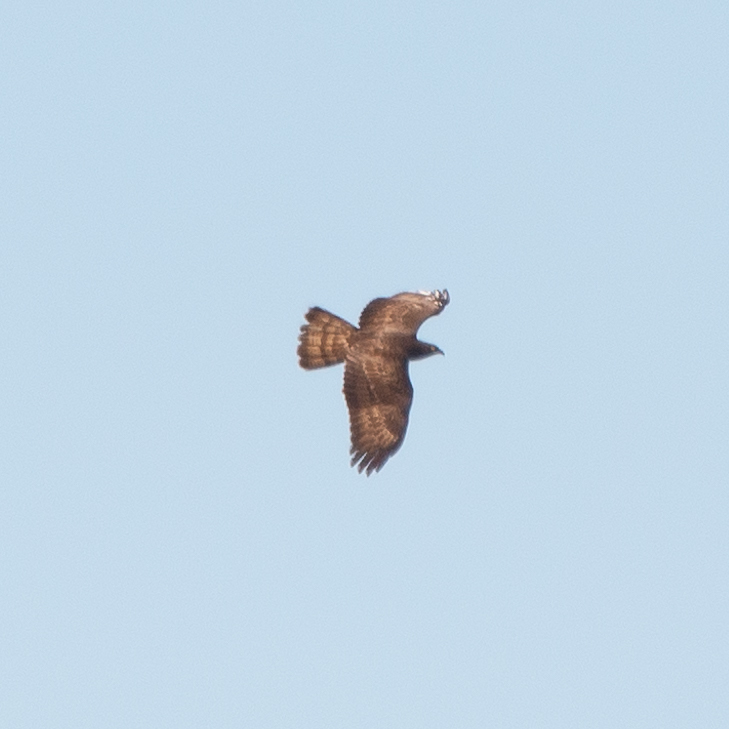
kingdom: Animalia
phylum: Chordata
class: Aves
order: Accipitriformes
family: Accipitridae
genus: Pernis
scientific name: Pernis apivorus
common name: European honey buzzard
